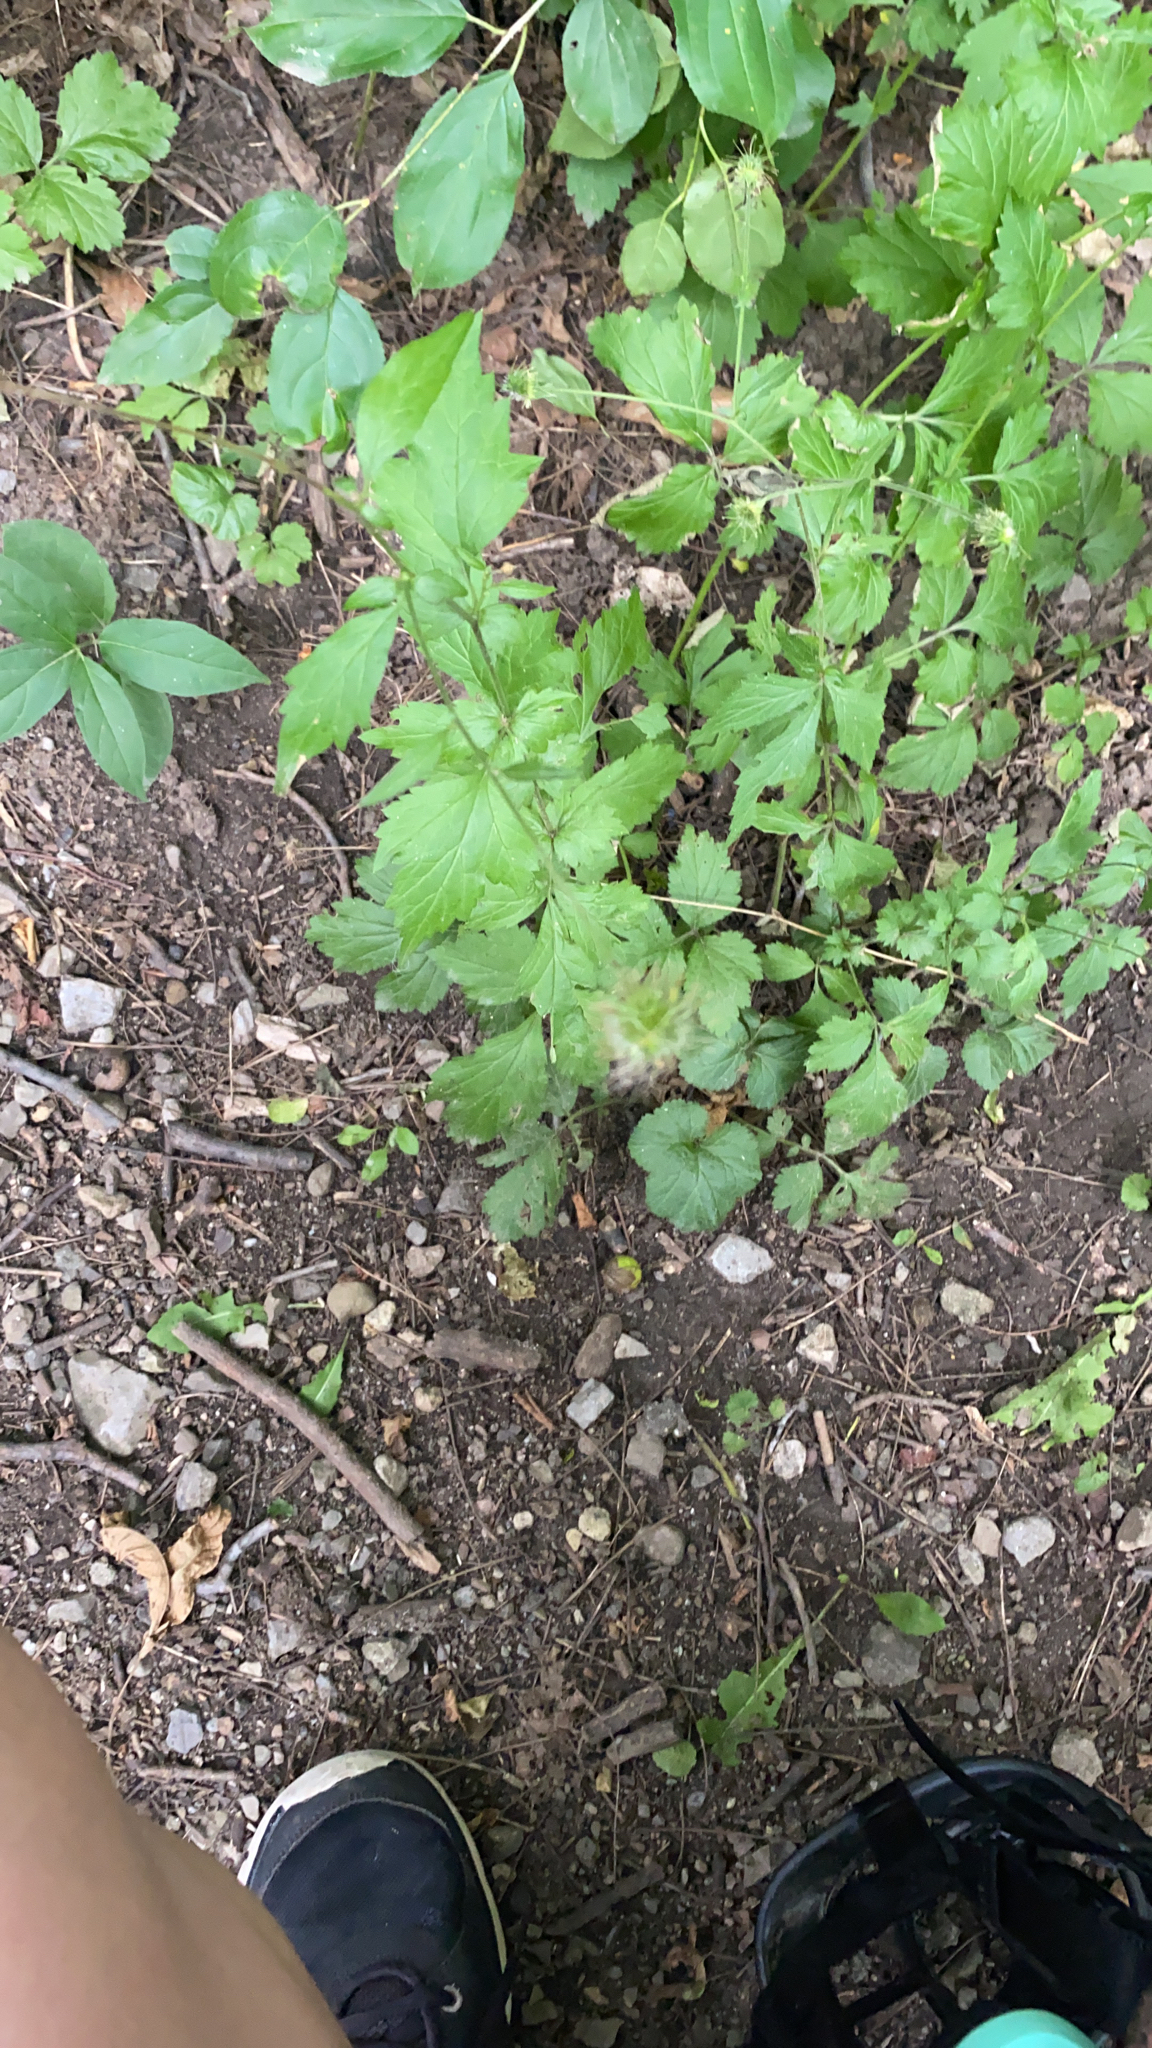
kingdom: Plantae
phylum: Tracheophyta
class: Magnoliopsida
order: Rosales
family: Rosaceae
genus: Geum
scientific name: Geum urbanum
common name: Wood avens
